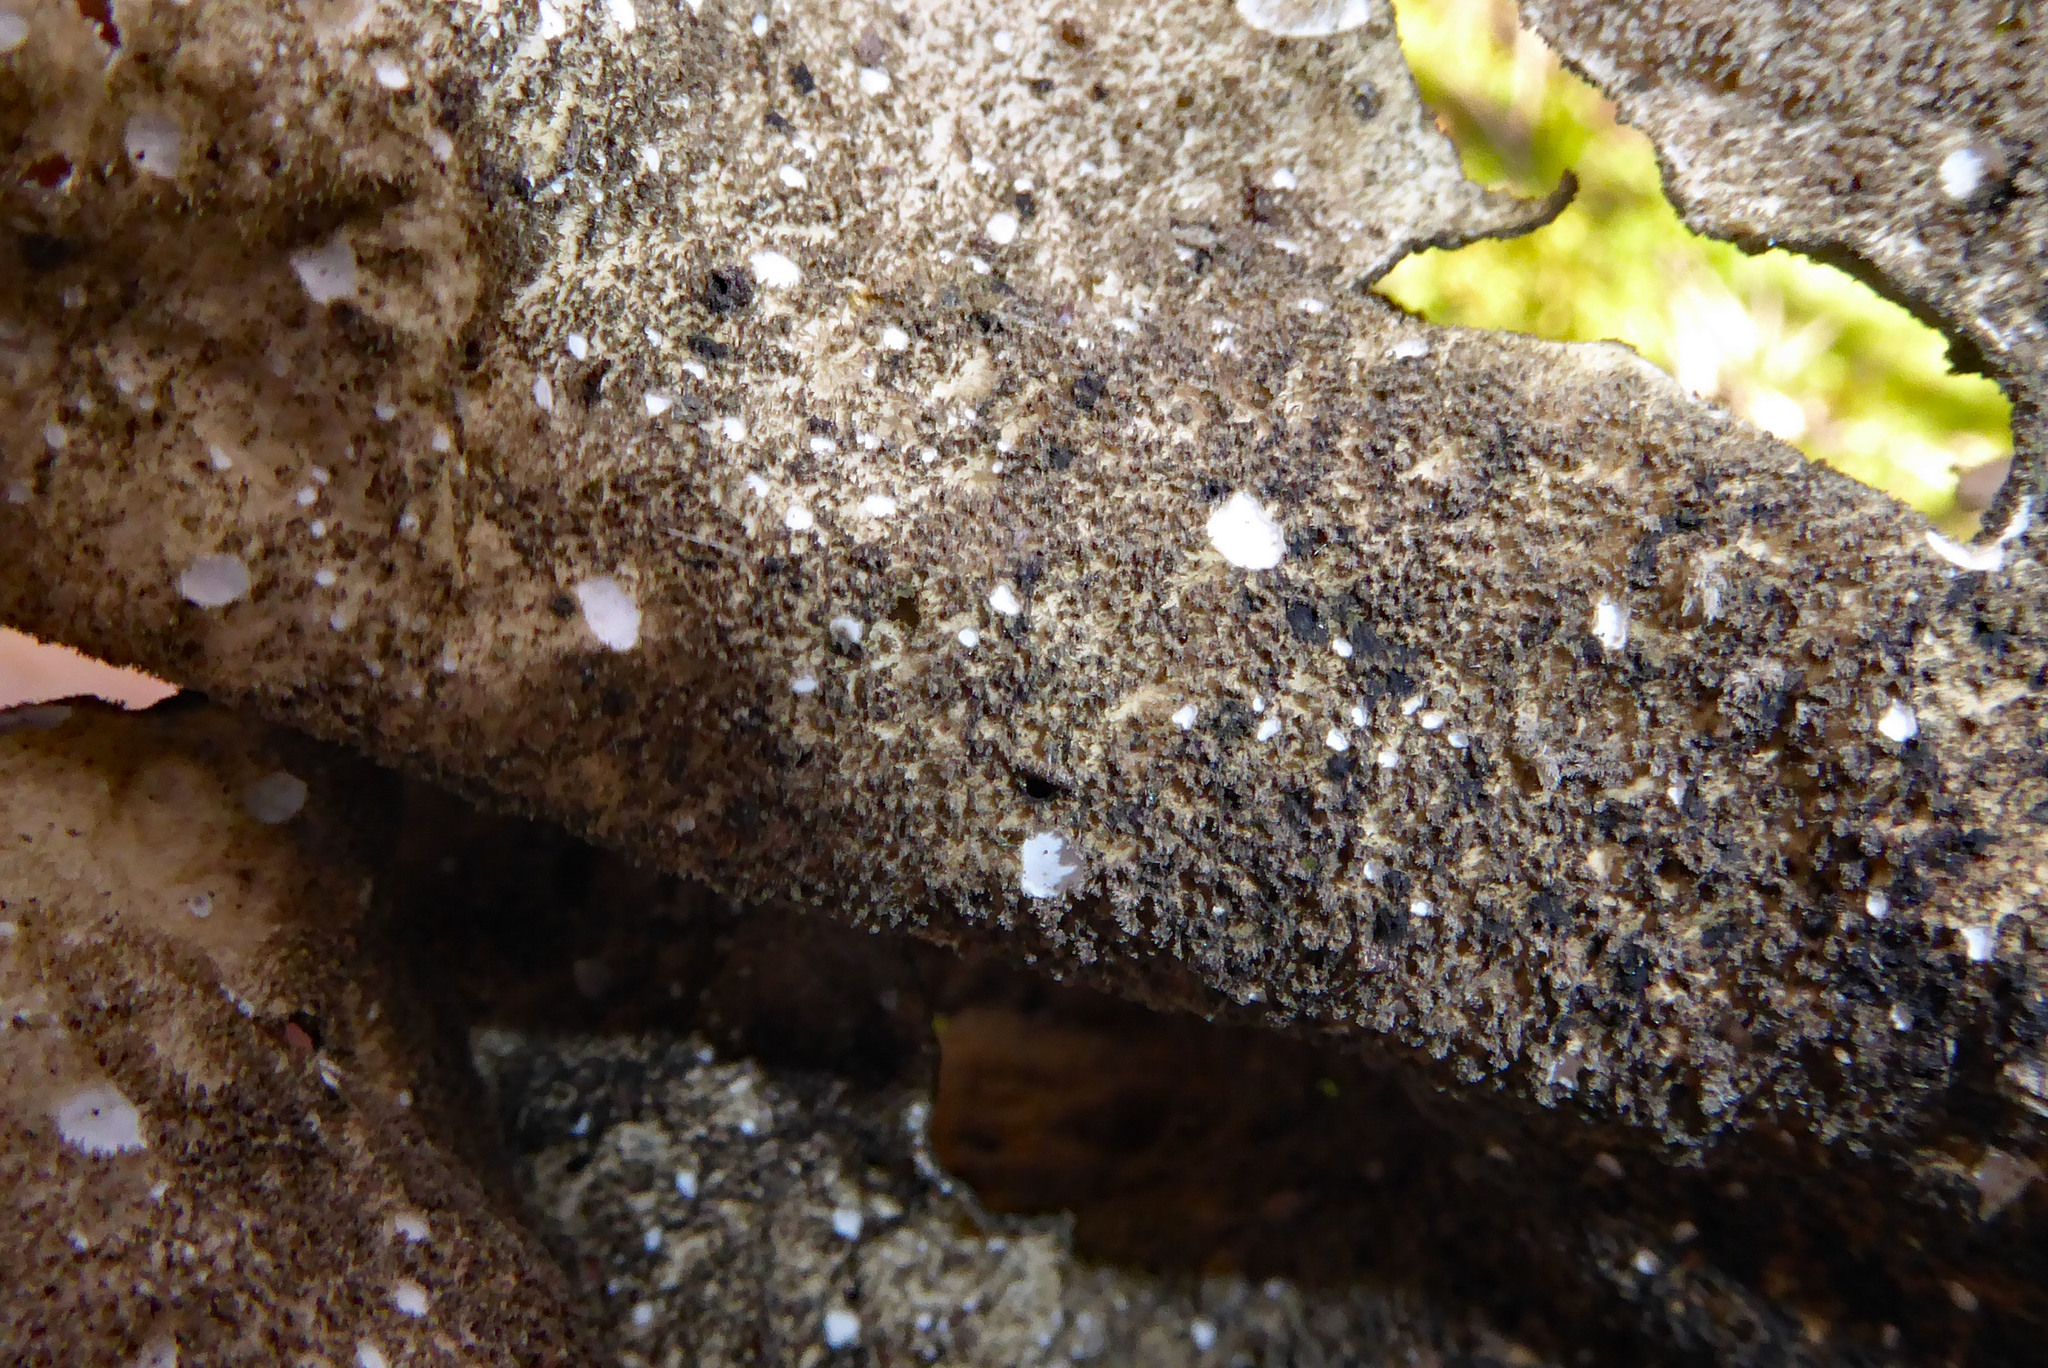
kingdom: Fungi
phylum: Ascomycota
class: Lecanoromycetes
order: Peltigerales
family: Lobariaceae
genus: Sticta
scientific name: Sticta fuliginosa
